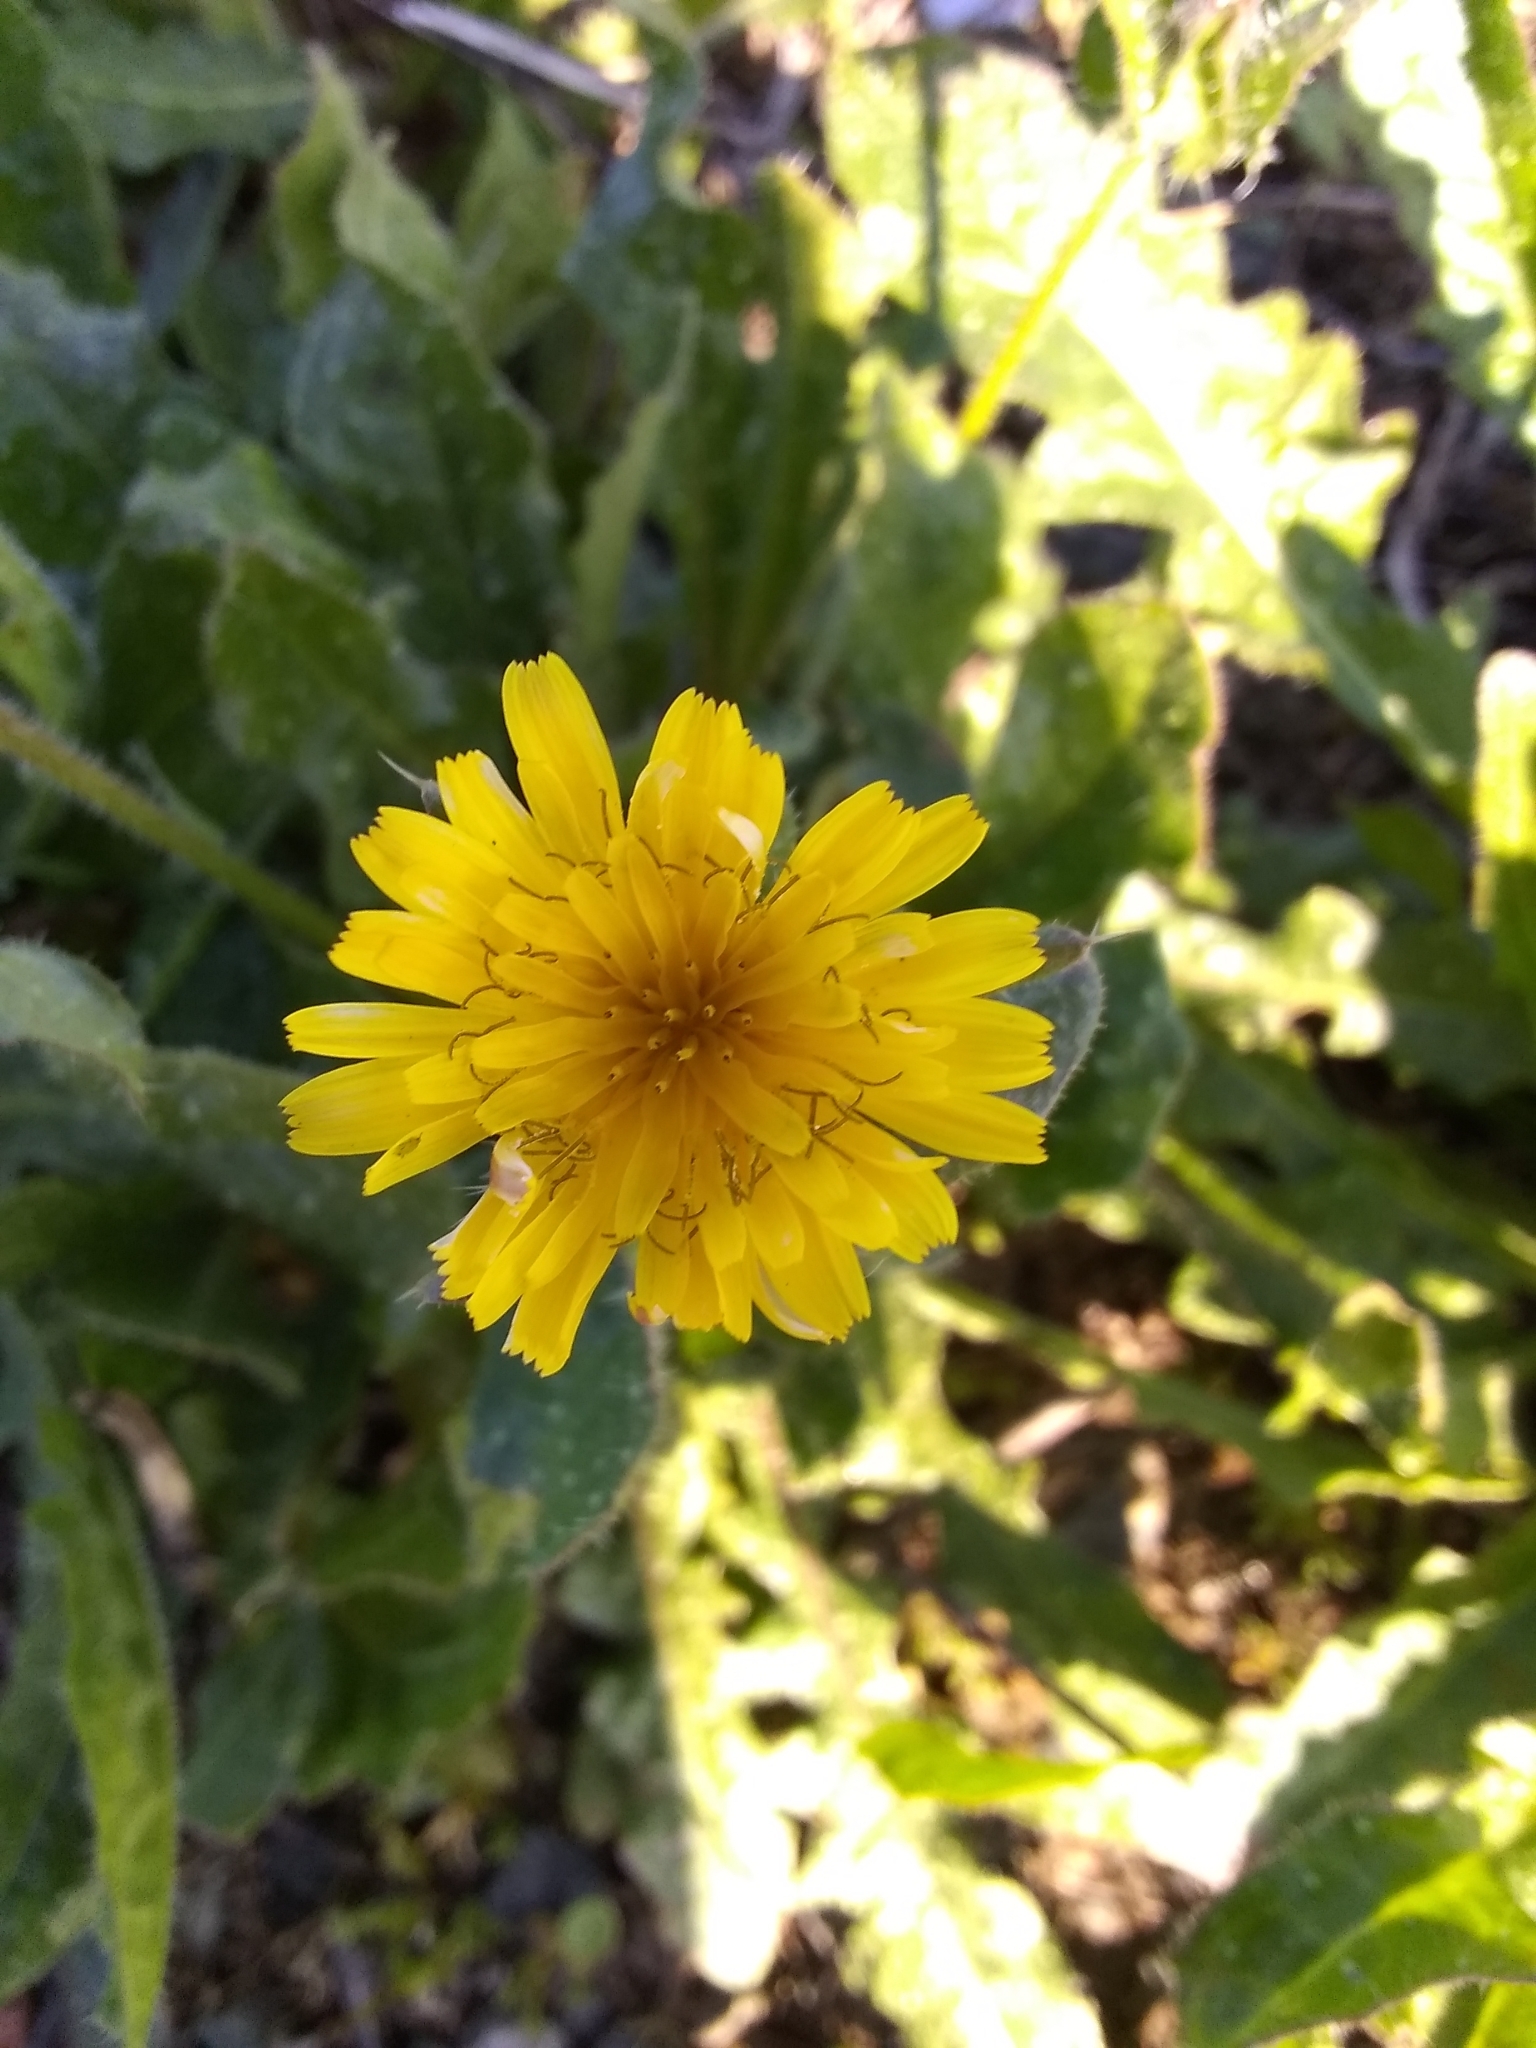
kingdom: Plantae
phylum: Tracheophyta
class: Magnoliopsida
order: Asterales
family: Asteraceae
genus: Helminthotheca
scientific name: Helminthotheca echioides
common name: Ox-tongue
